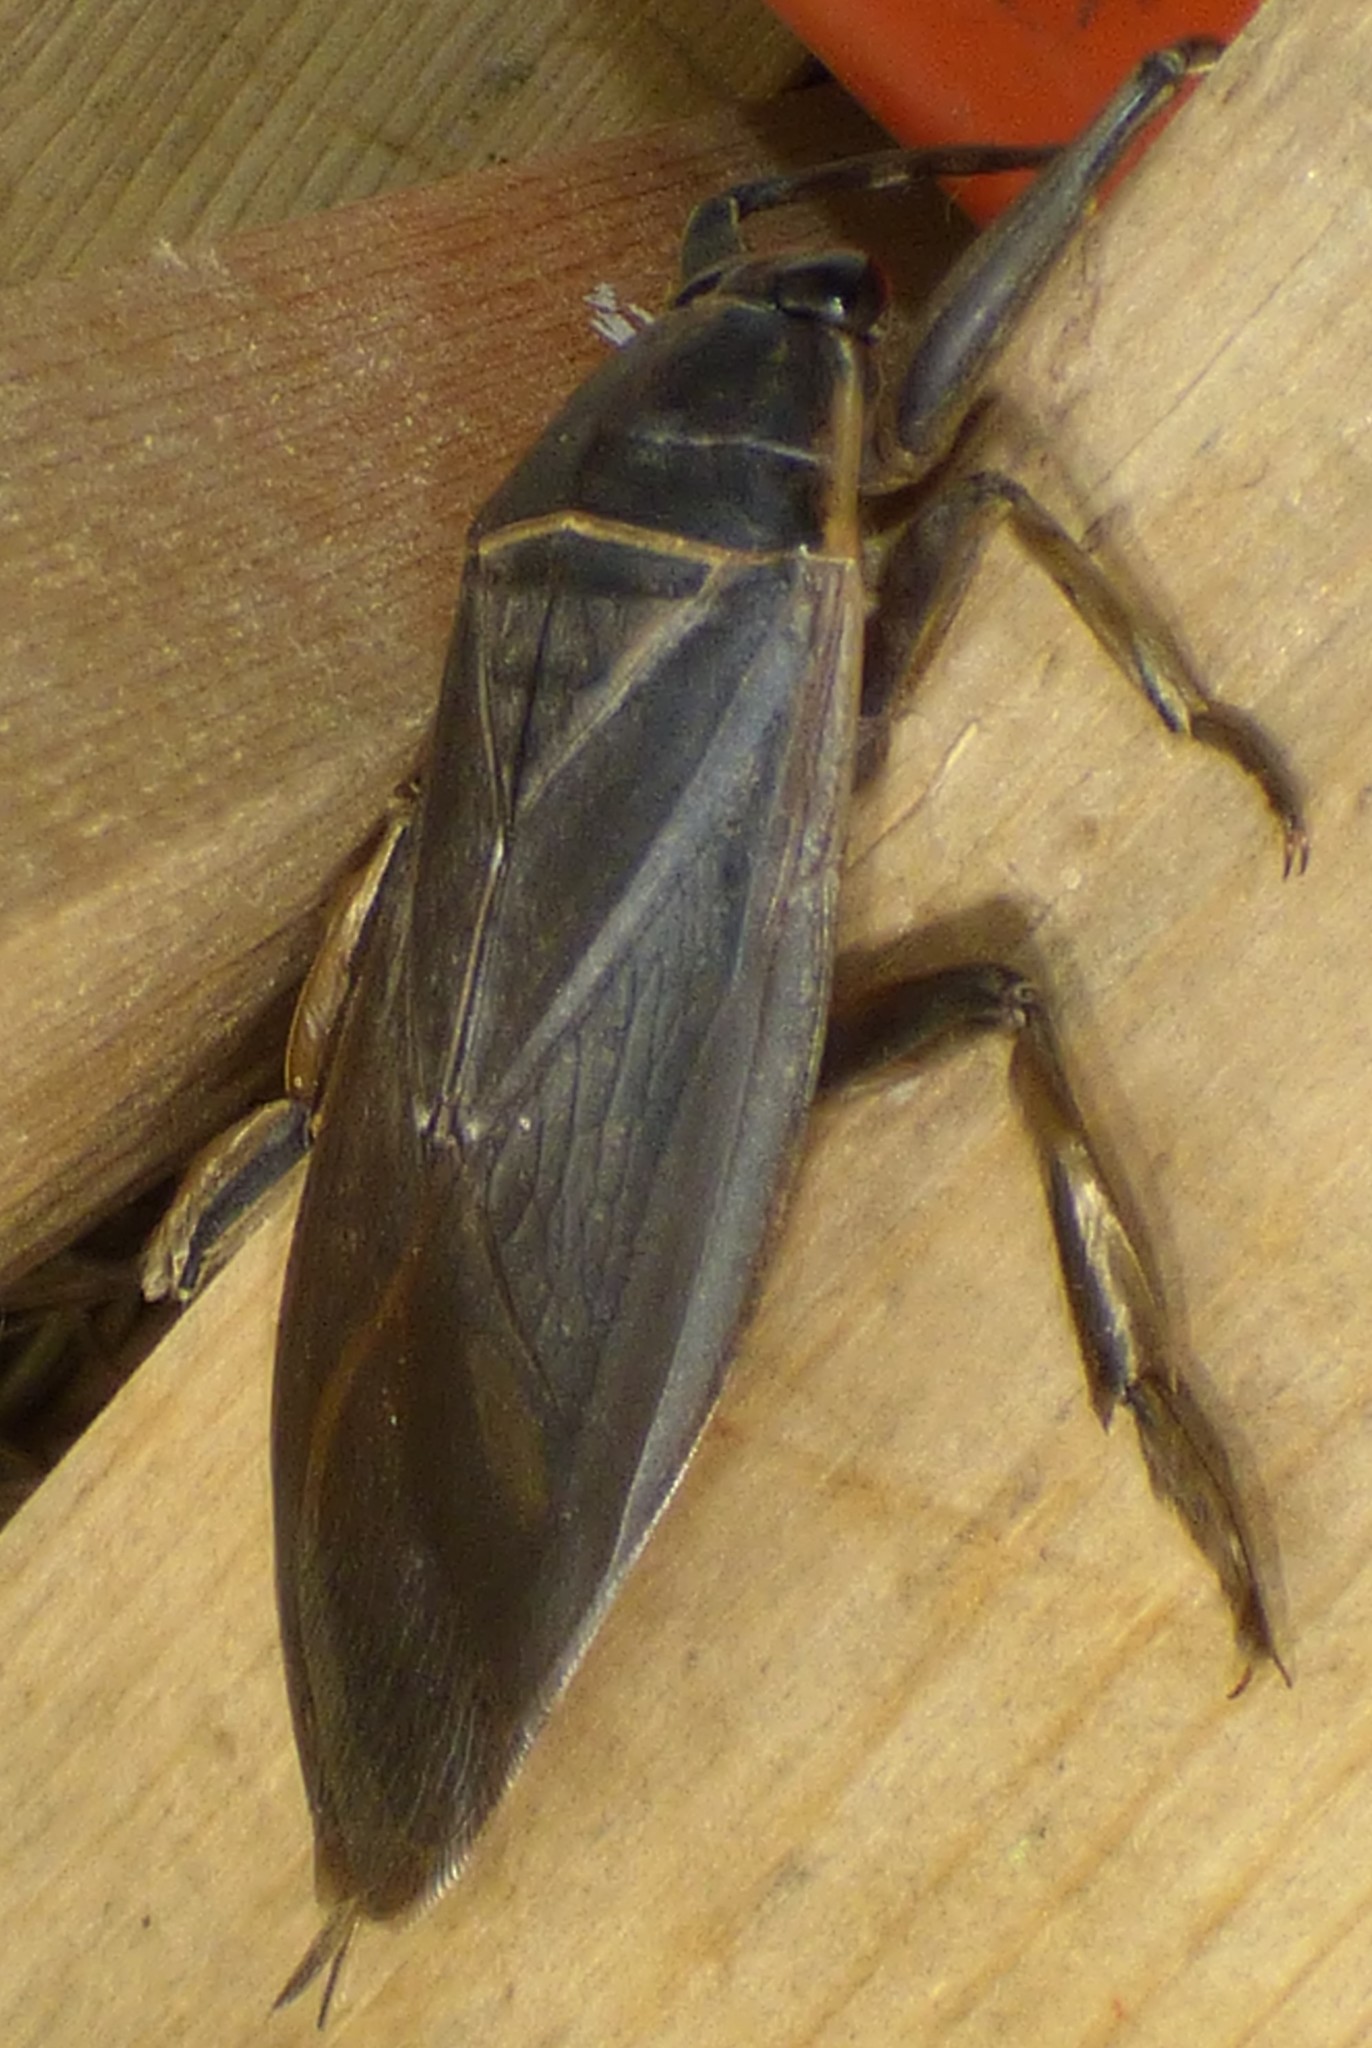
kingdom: Animalia
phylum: Arthropoda
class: Insecta
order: Hemiptera
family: Belostomatidae
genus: Benacus
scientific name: Benacus griseus
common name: Eastern toe-biter
